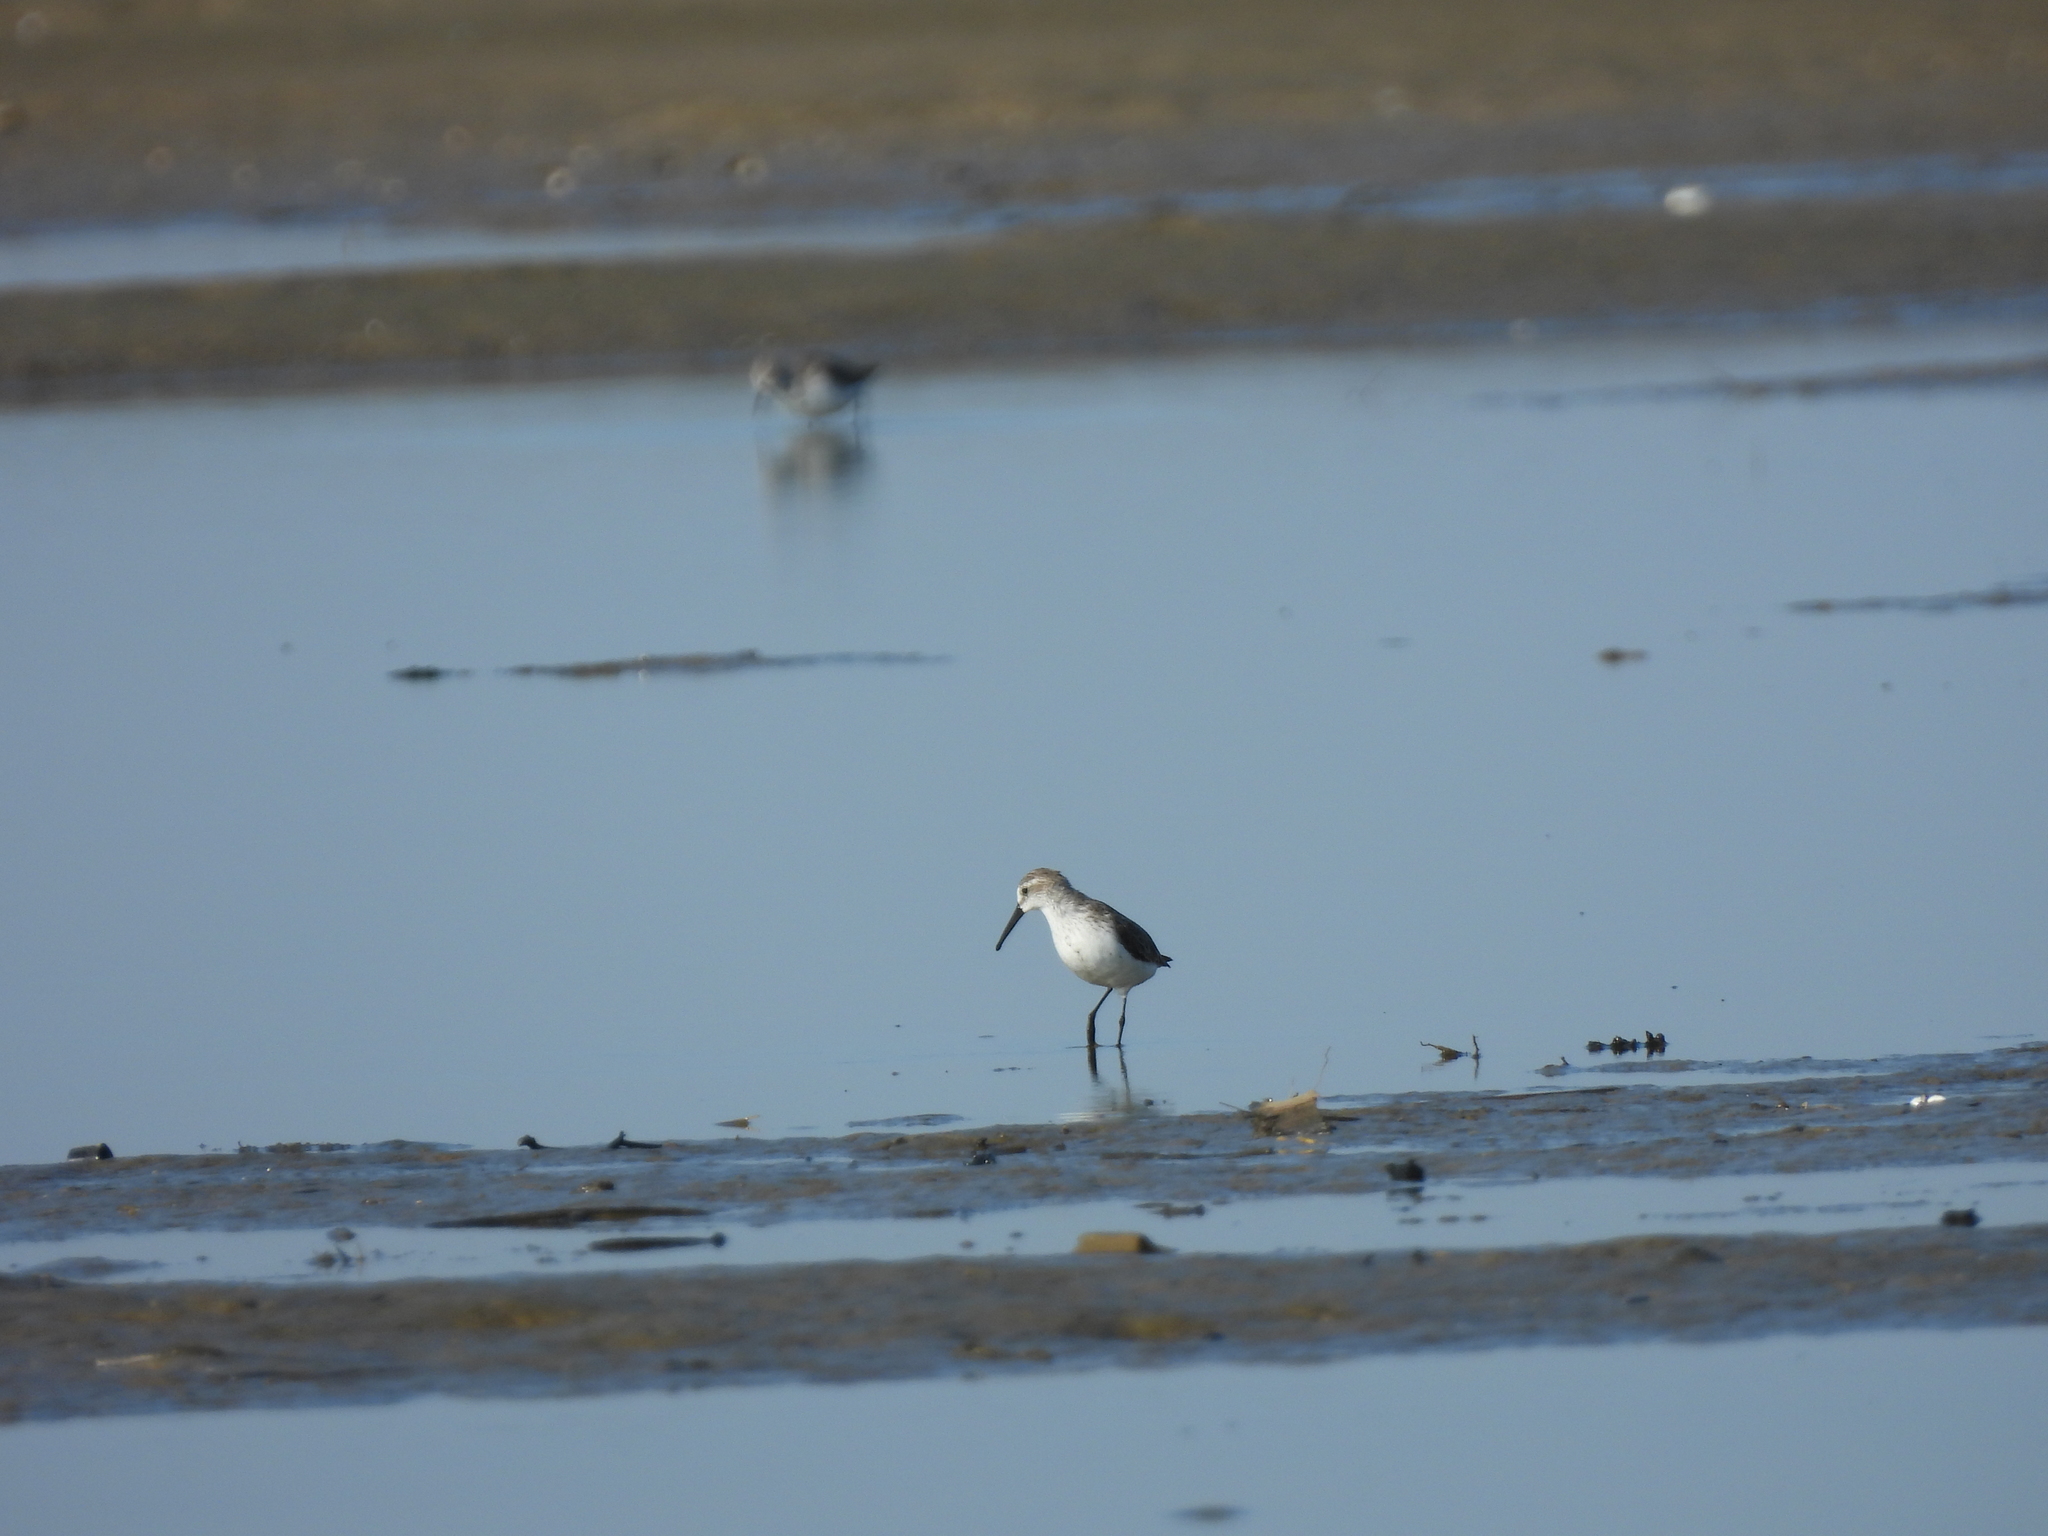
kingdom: Animalia
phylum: Chordata
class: Aves
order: Charadriiformes
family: Scolopacidae
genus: Calidris
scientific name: Calidris mauri
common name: Western sandpiper
